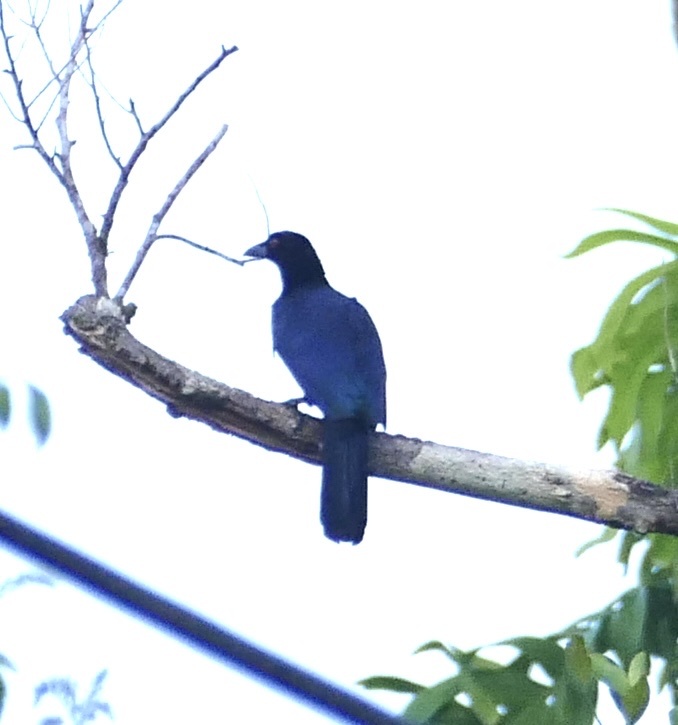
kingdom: Animalia
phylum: Chordata
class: Aves
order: Passeriformes
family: Paradisaeidae
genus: Manucodia
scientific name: Manucodia ater
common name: Glossy-mantled manucode
